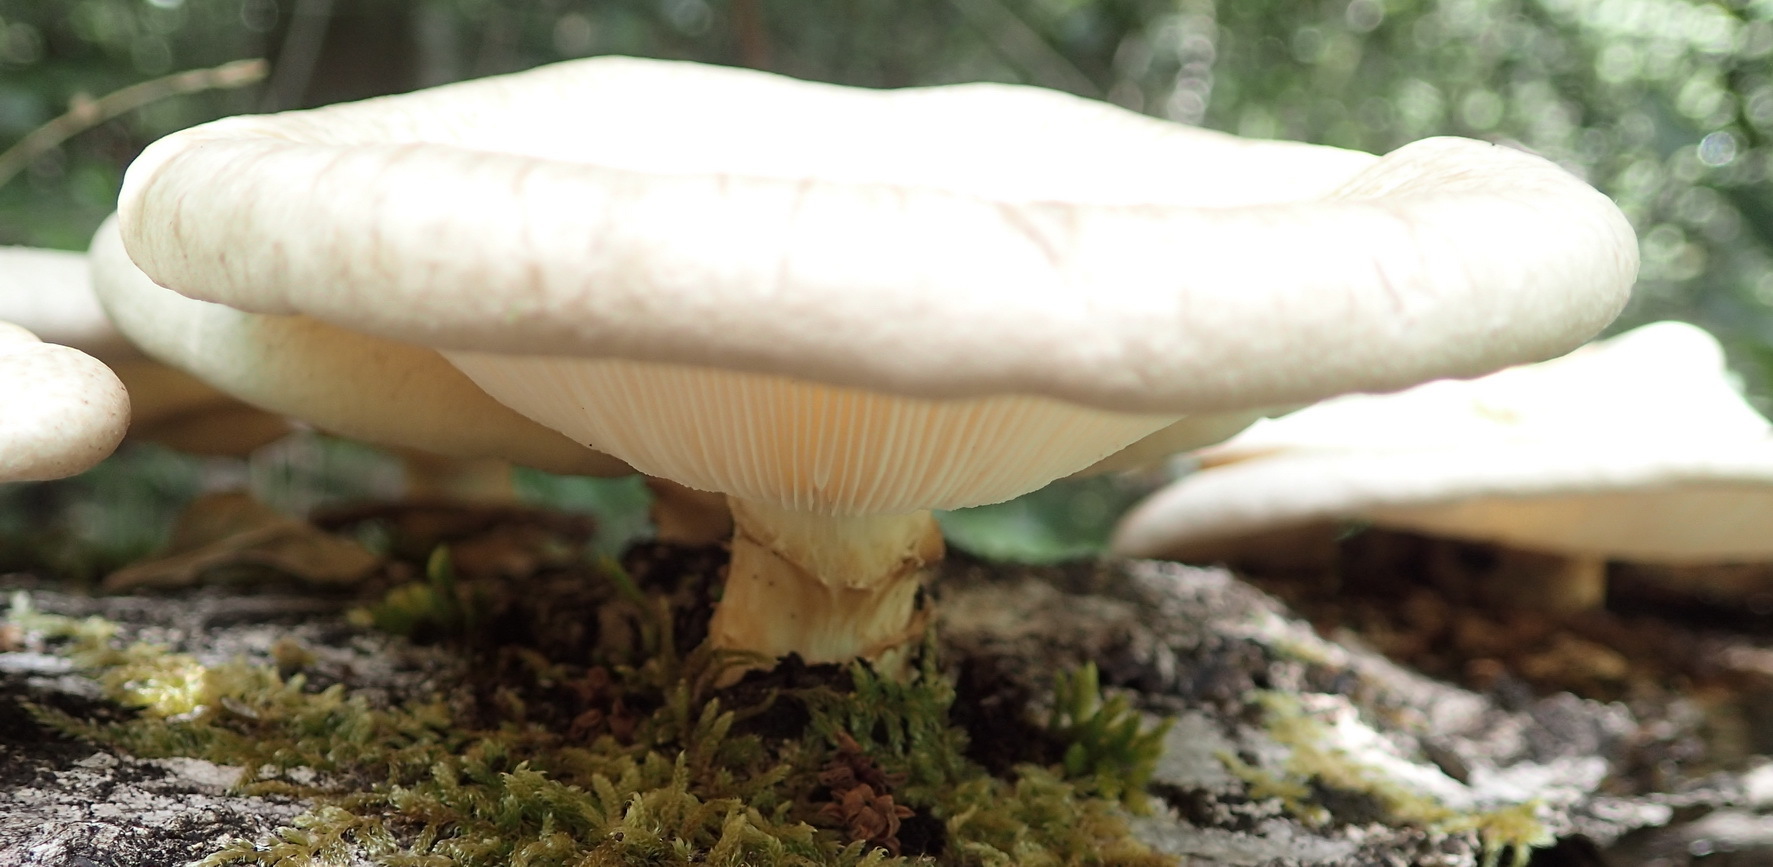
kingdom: Fungi
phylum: Basidiomycota
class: Agaricomycetes
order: Polyporales
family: Polyporaceae
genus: Lentinus
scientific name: Lentinus sajor-caju
